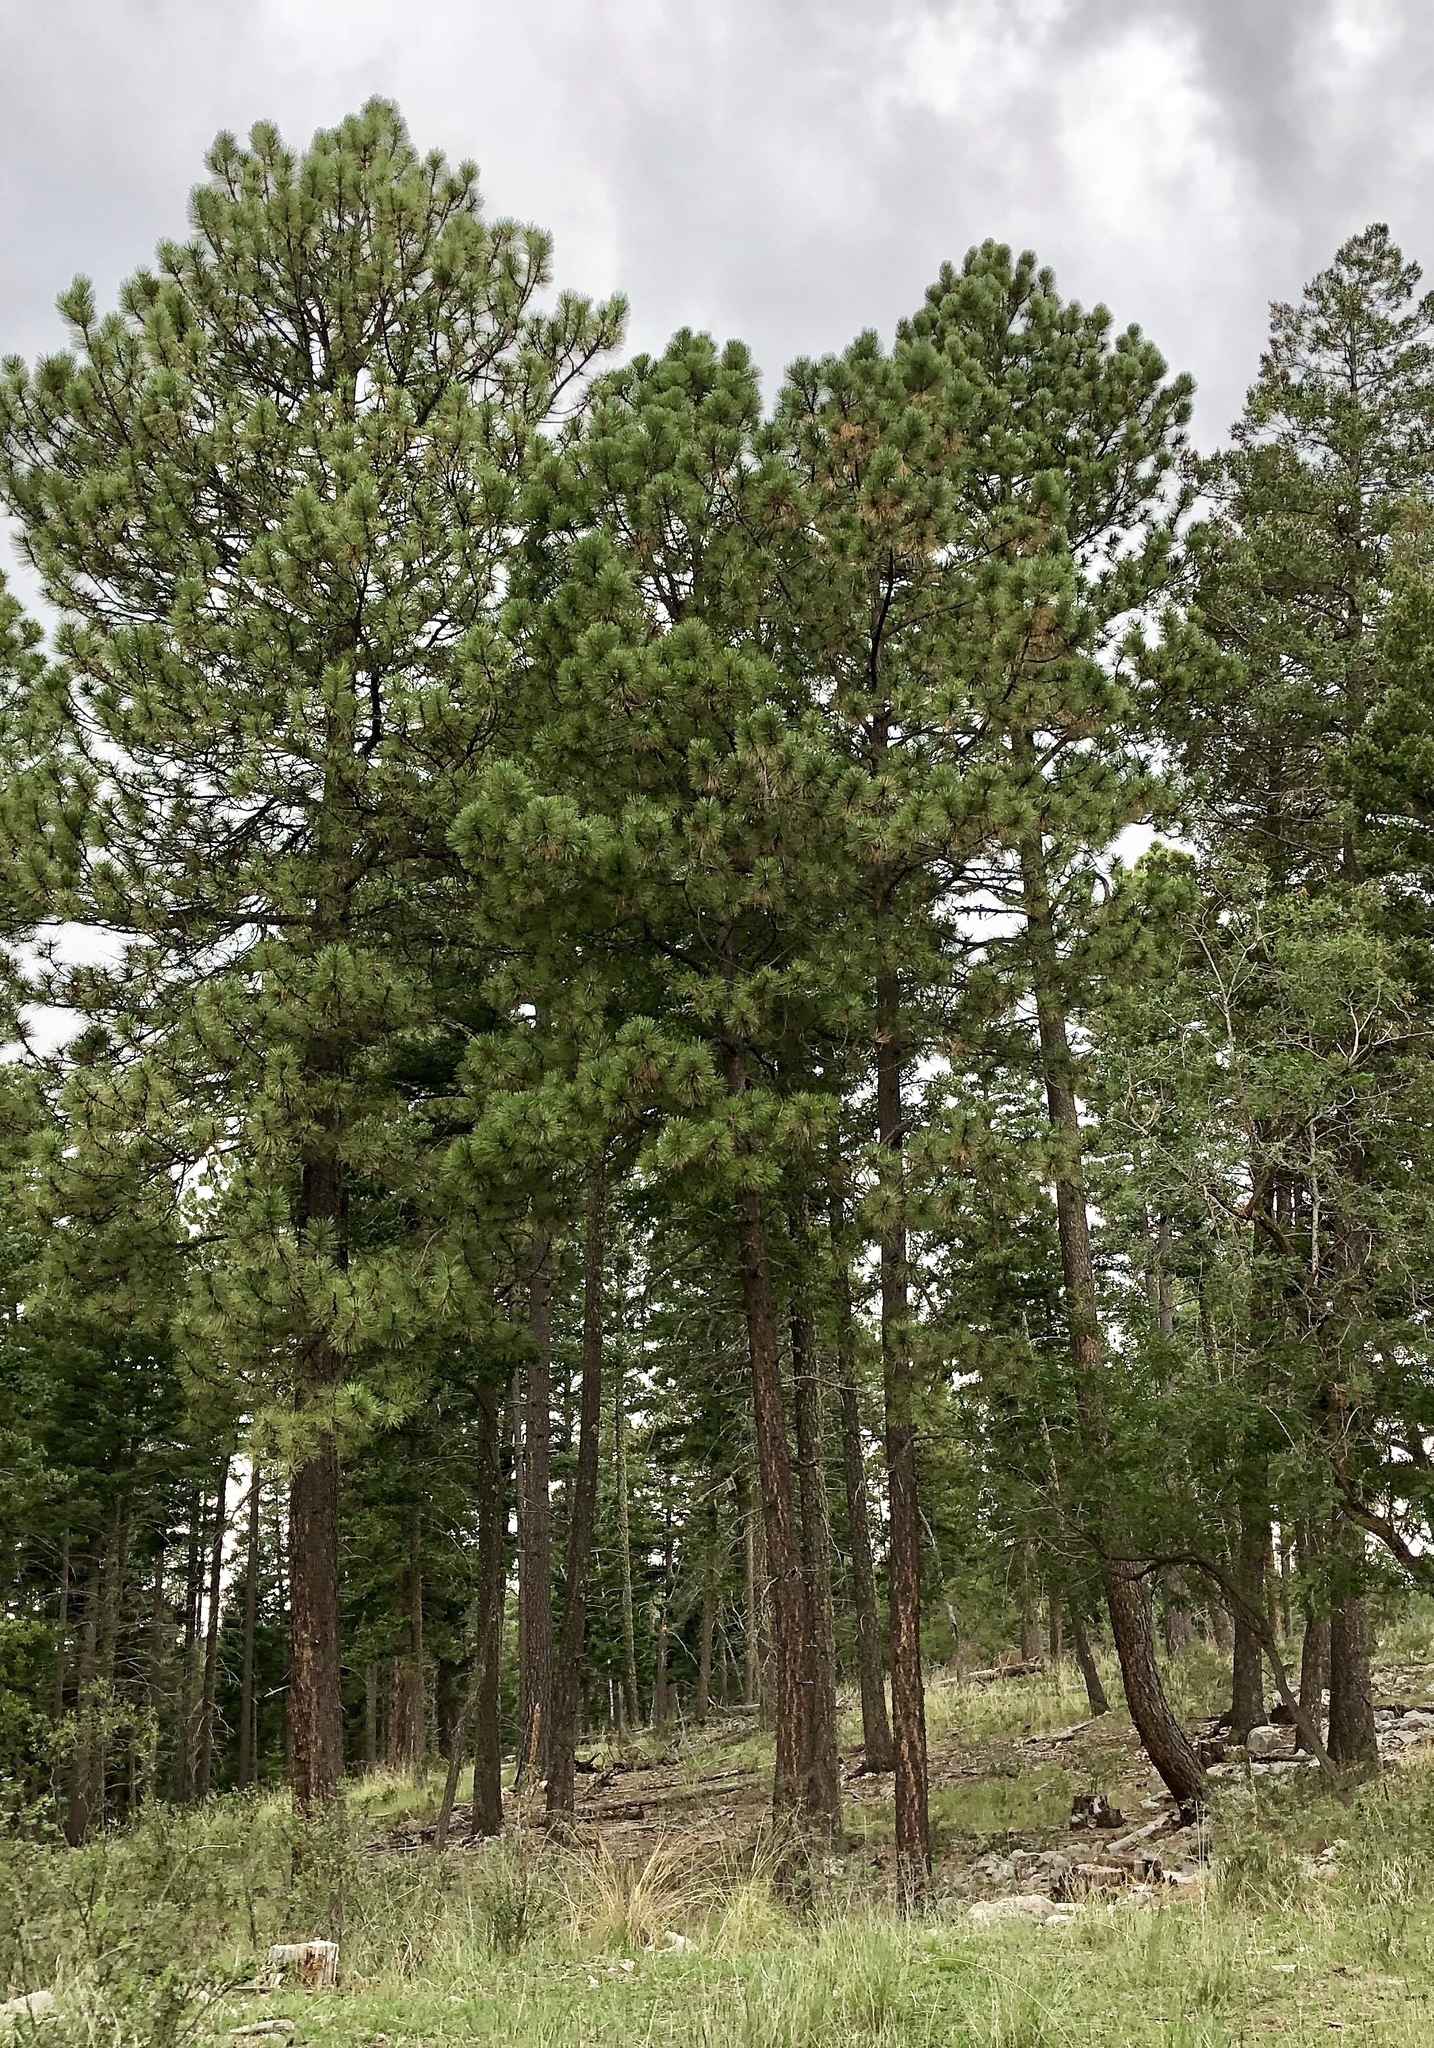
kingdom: Plantae
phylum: Tracheophyta
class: Pinopsida
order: Pinales
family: Pinaceae
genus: Pinus
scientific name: Pinus ponderosa
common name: Western yellow-pine
